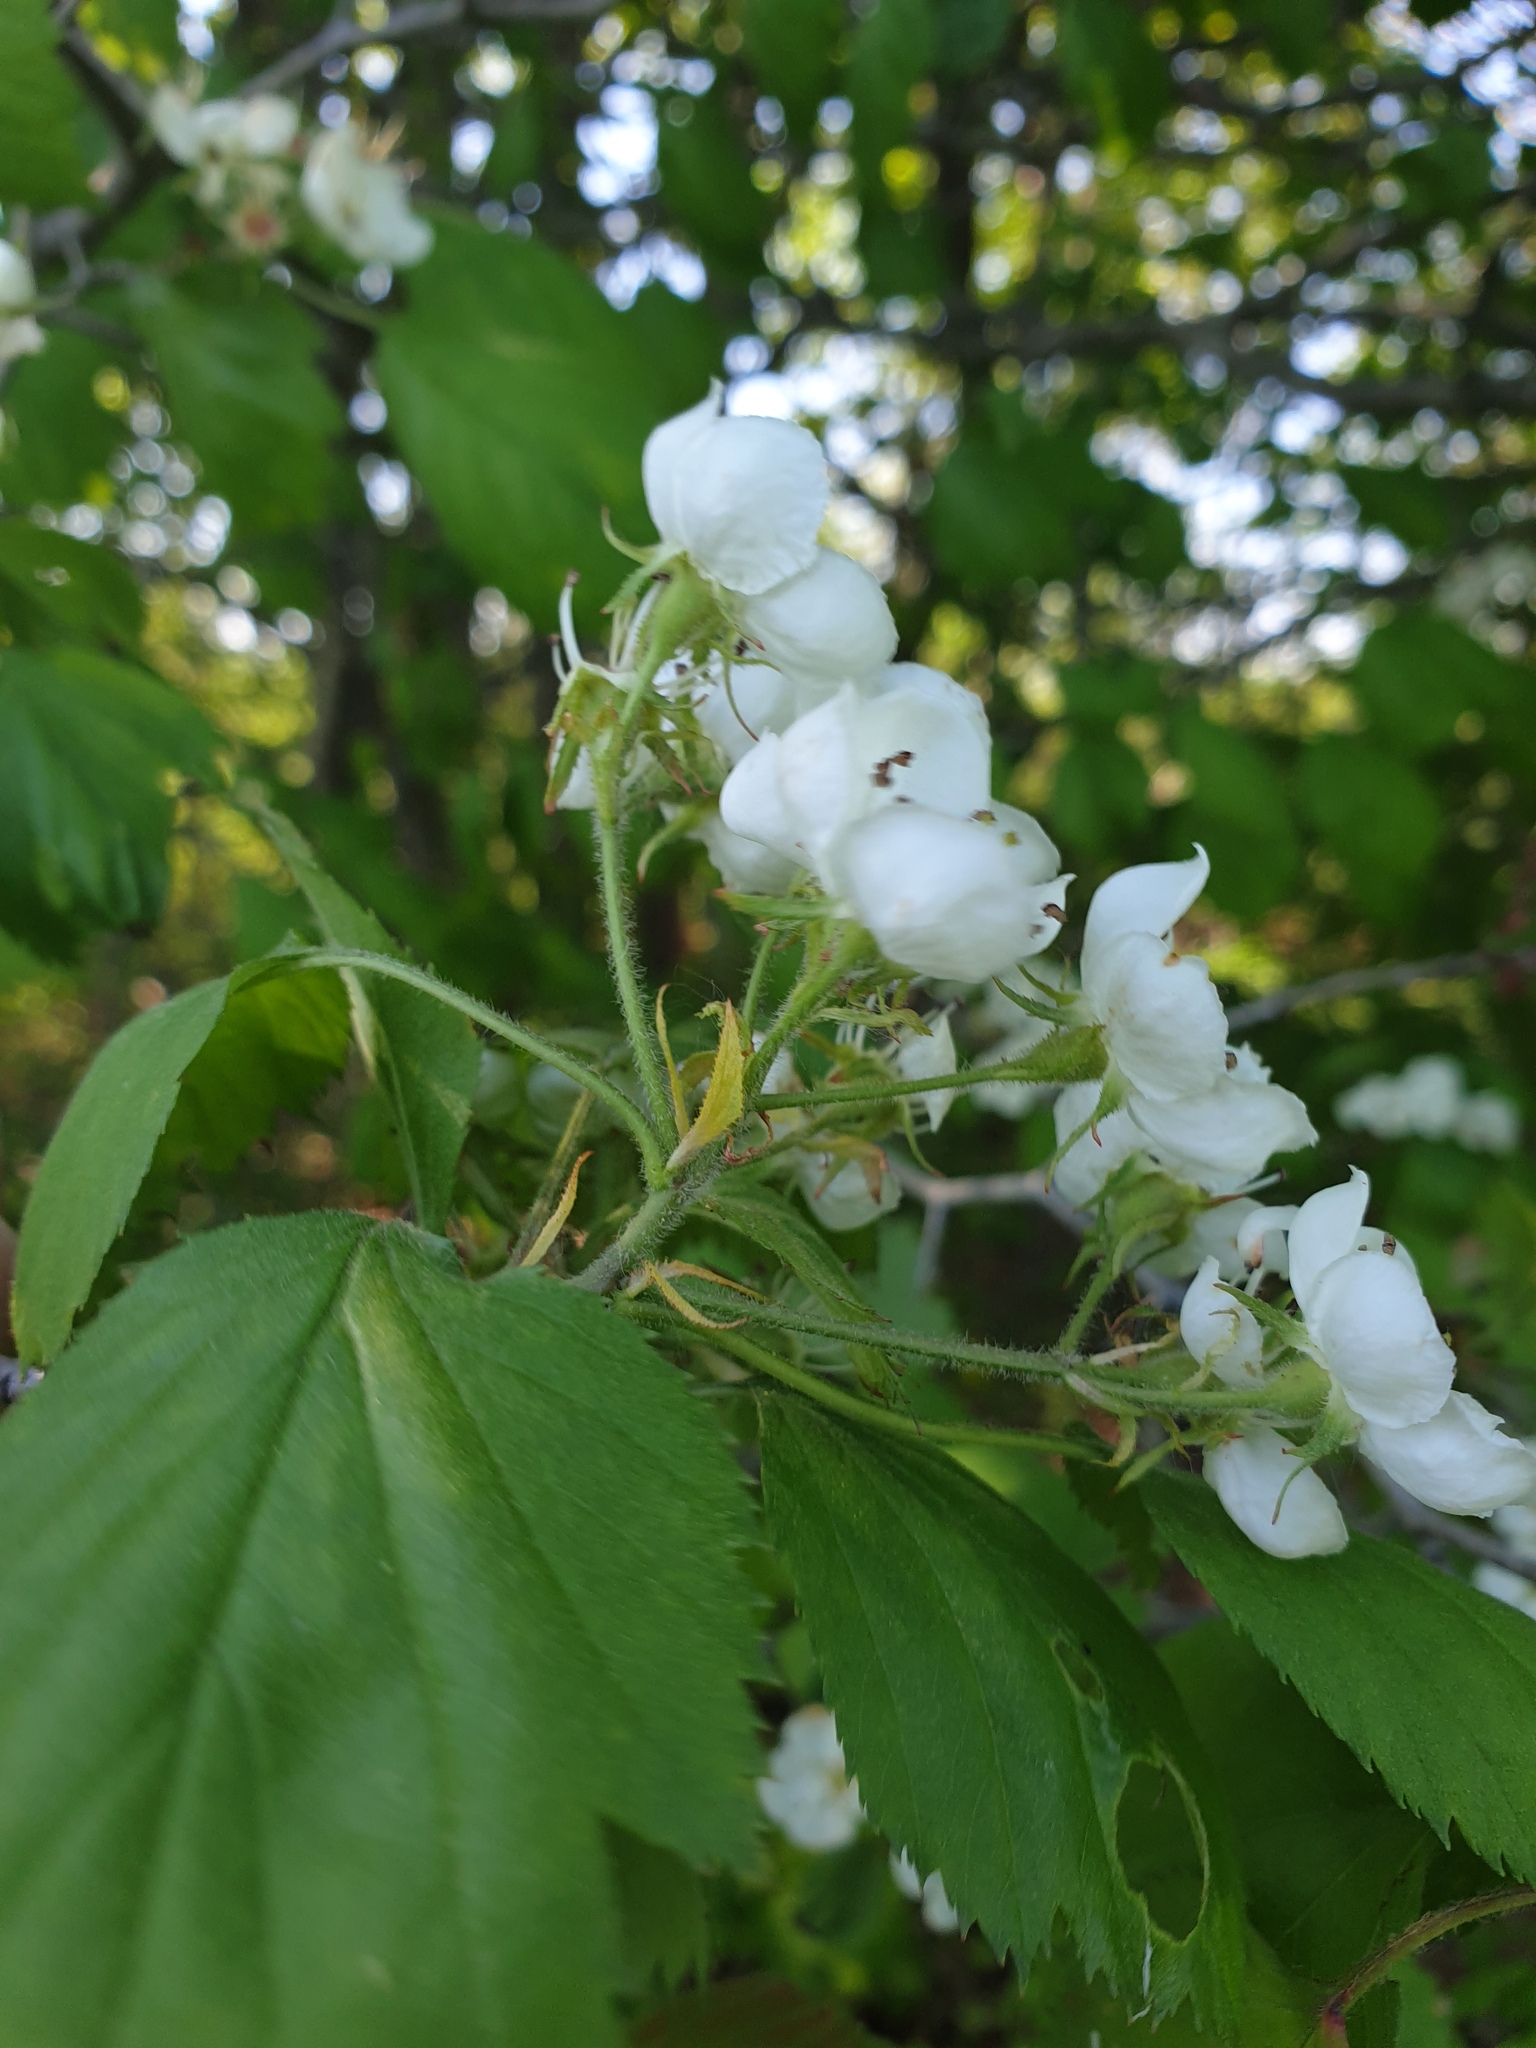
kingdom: Plantae
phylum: Tracheophyta
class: Magnoliopsida
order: Rosales
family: Rosaceae
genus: Crataegus
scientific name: Crataegus coccinea
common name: Scarlet hawthorn
